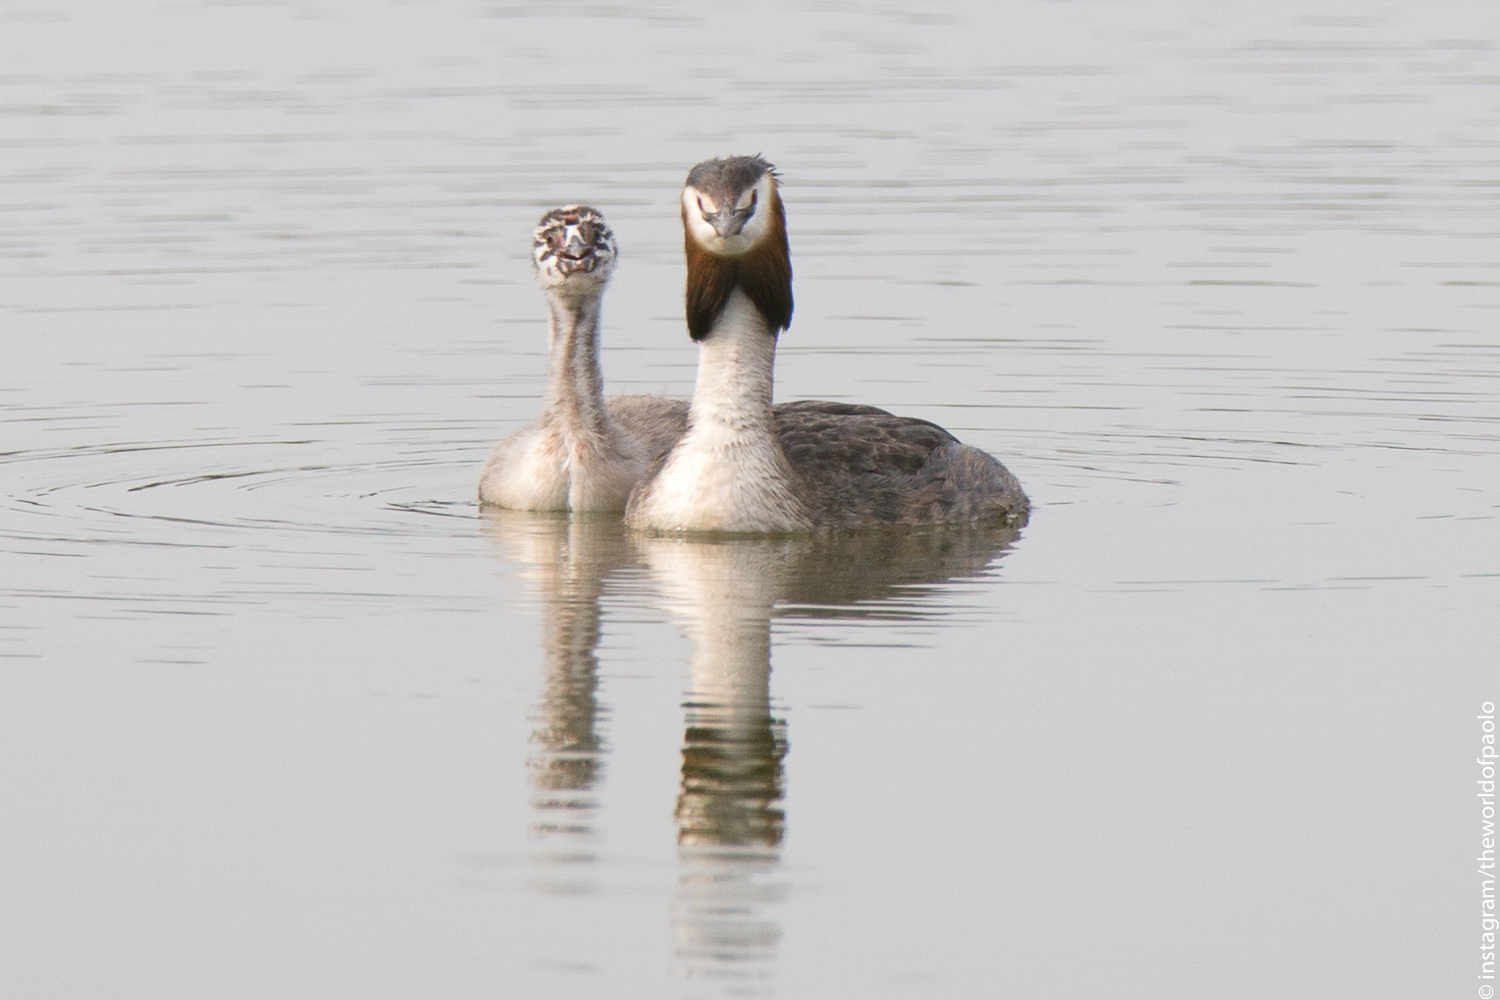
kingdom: Animalia
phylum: Chordata
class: Aves
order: Podicipediformes
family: Podicipedidae
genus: Podiceps
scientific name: Podiceps cristatus
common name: Great crested grebe
